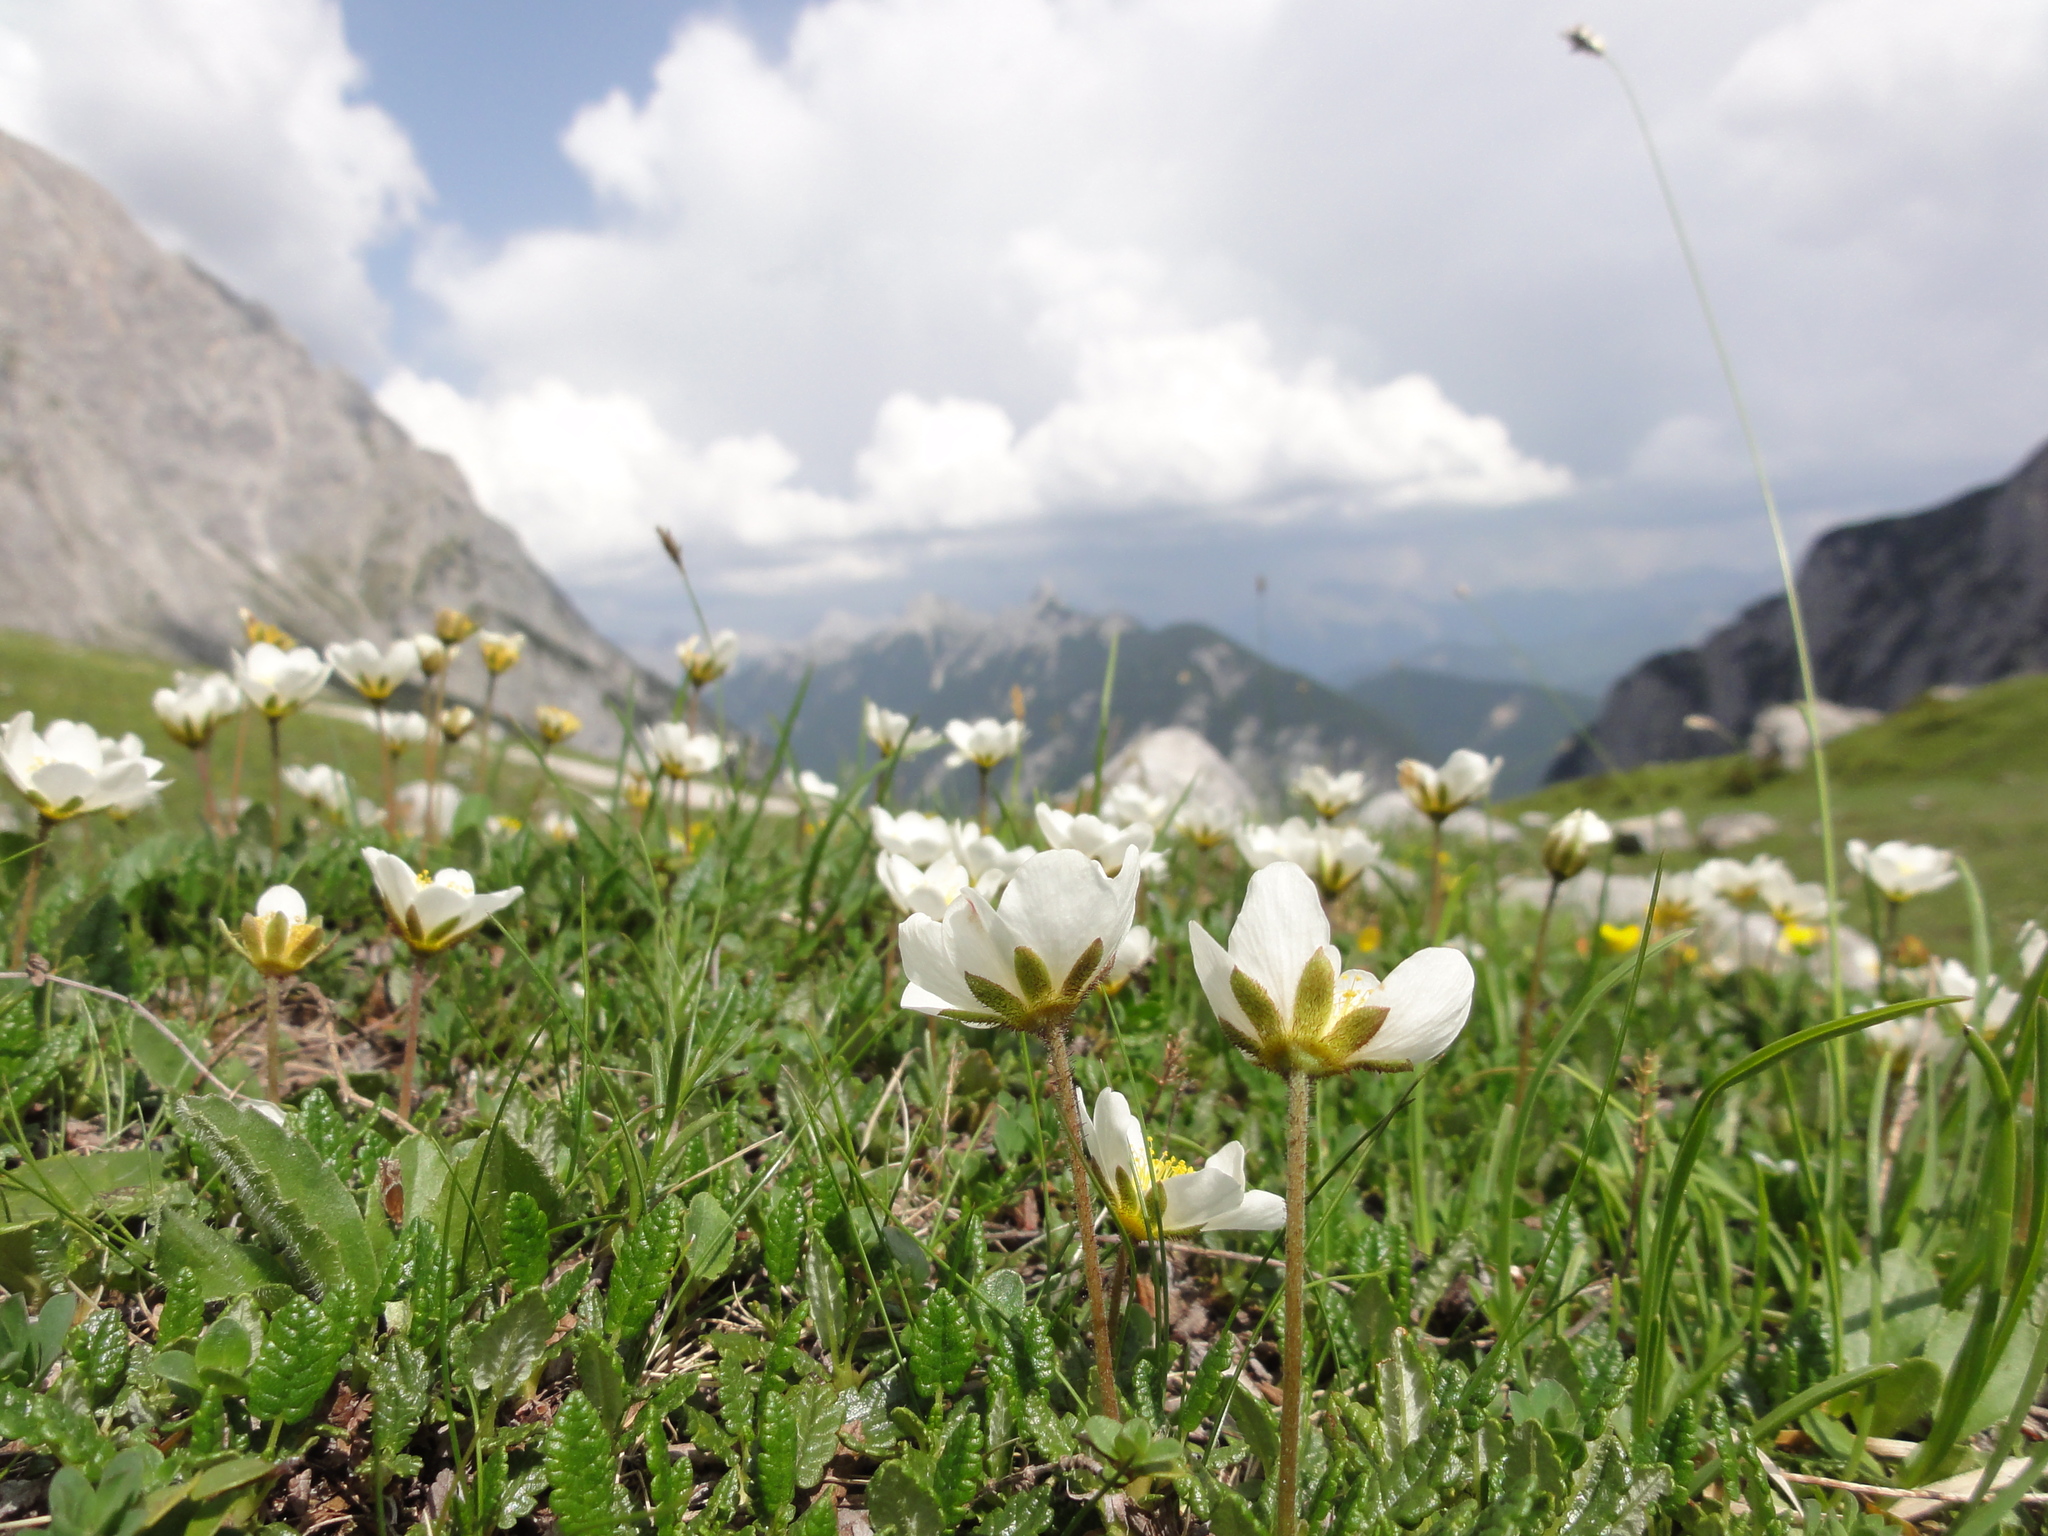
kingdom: Plantae
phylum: Tracheophyta
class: Magnoliopsida
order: Rosales
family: Rosaceae
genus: Dryas
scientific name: Dryas octopetala
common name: Eight-petal mountain-avens
